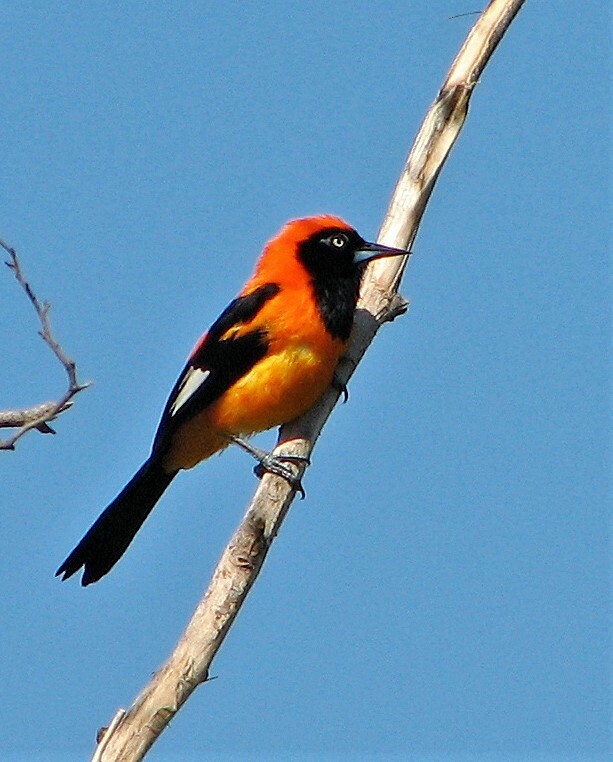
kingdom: Animalia
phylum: Chordata
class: Aves
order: Passeriformes
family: Icteridae
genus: Icterus
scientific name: Icterus icterus
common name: Venezuelan troupial
